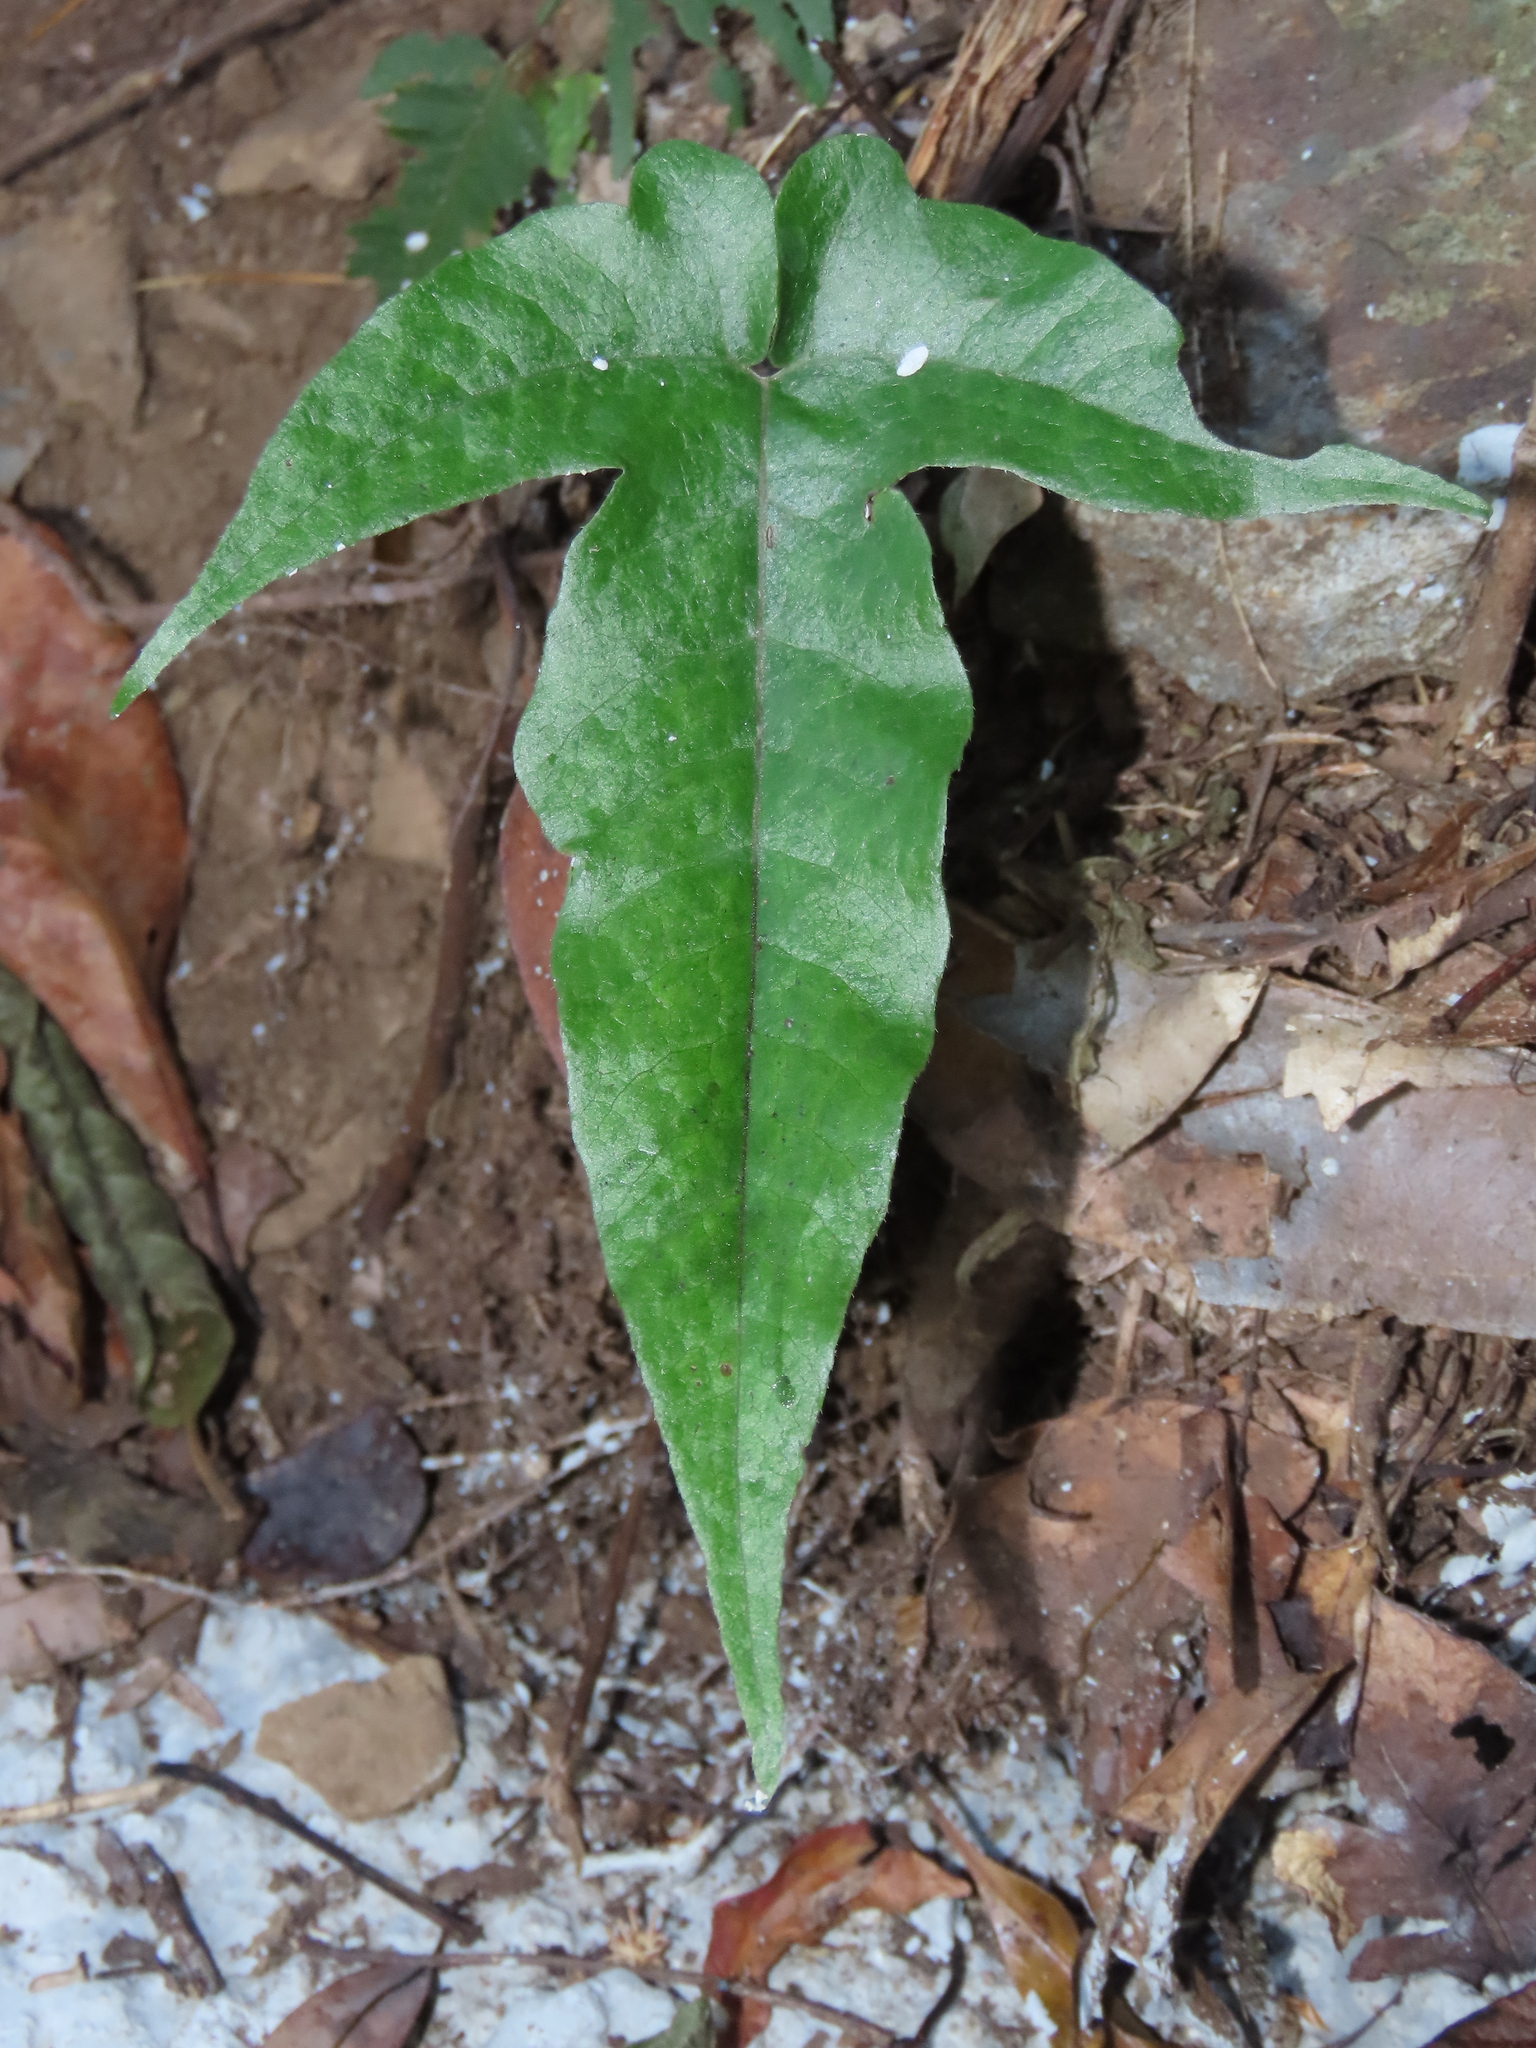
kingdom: Plantae
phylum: Tracheophyta
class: Polypodiopsida
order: Polypodiales
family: Tectariaceae
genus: Tectaria
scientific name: Tectaria subtriphylla
